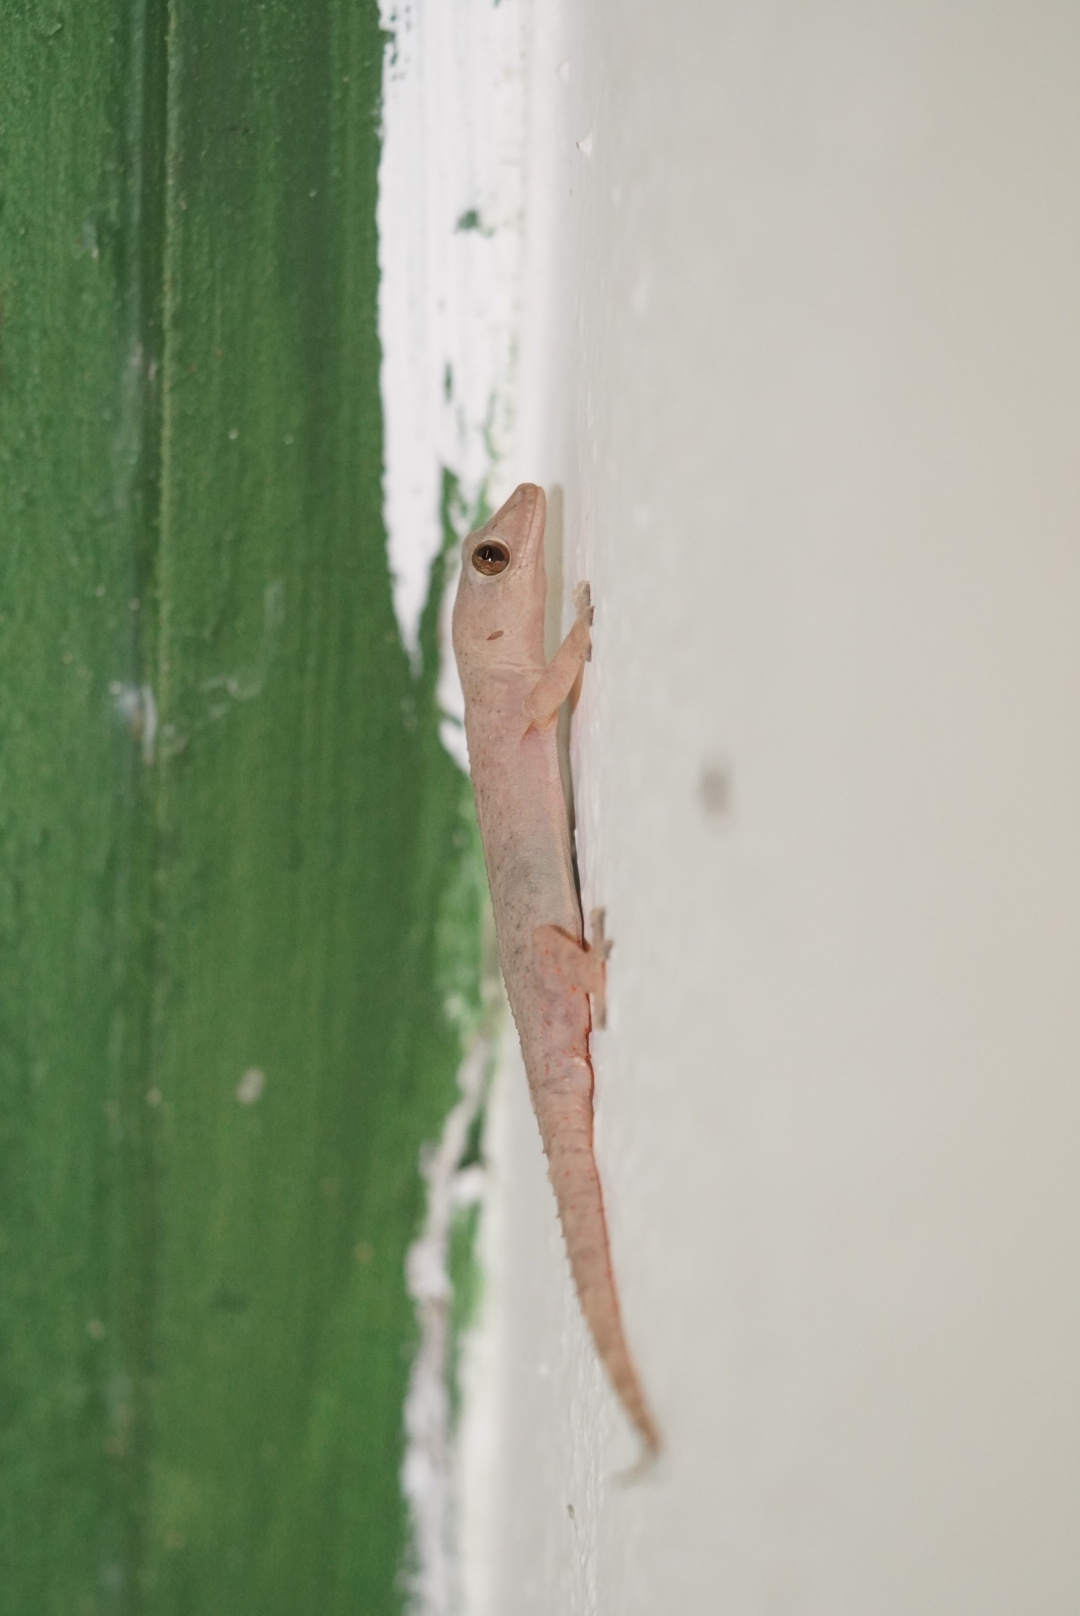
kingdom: Animalia
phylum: Chordata
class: Squamata
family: Gekkonidae
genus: Hemidactylus
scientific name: Hemidactylus mabouia
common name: House gecko
